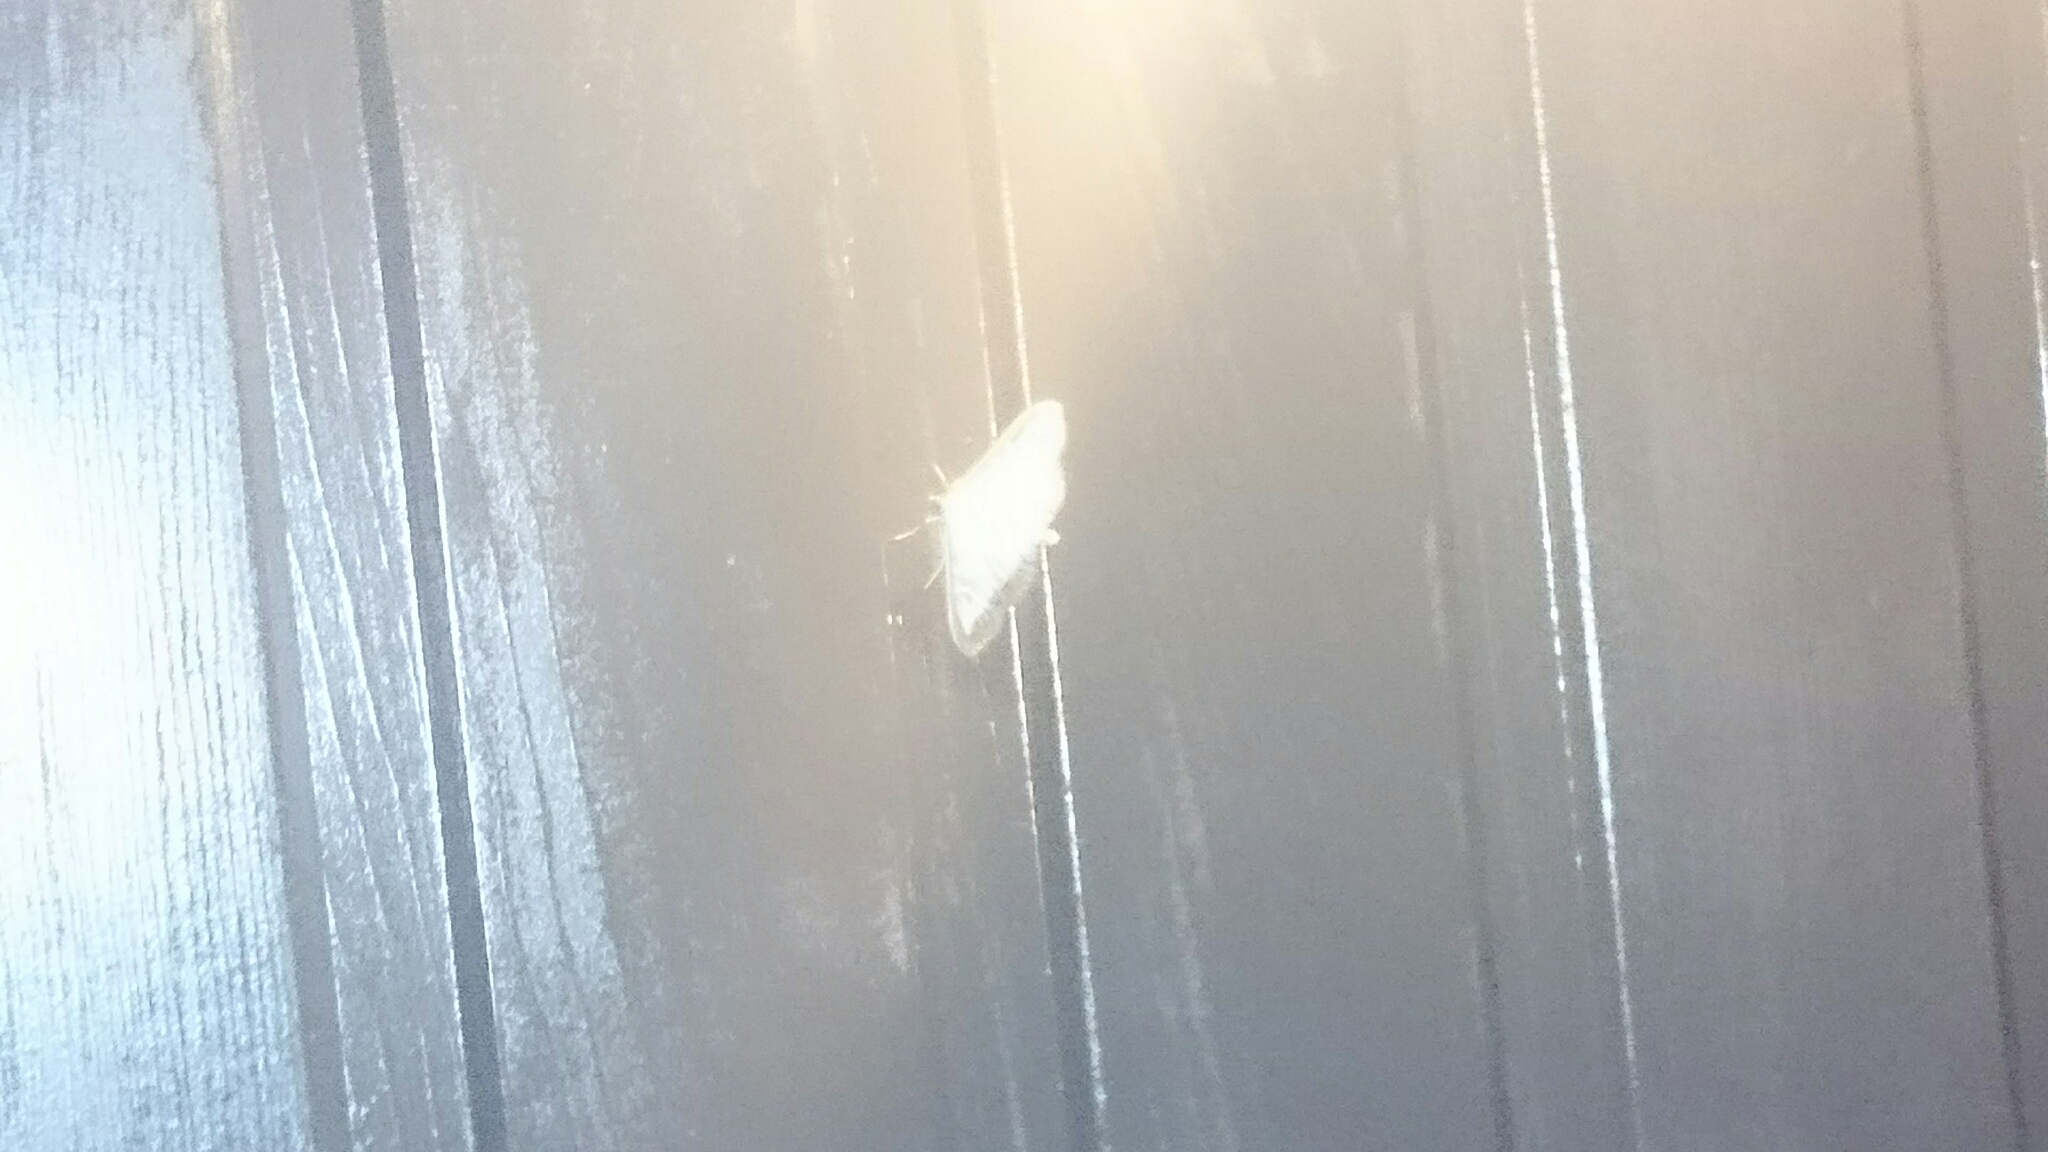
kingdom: Animalia
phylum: Arthropoda
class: Insecta
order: Lepidoptera
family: Crambidae
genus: Cydalima
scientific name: Cydalima perspectalis
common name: Box tree moth
